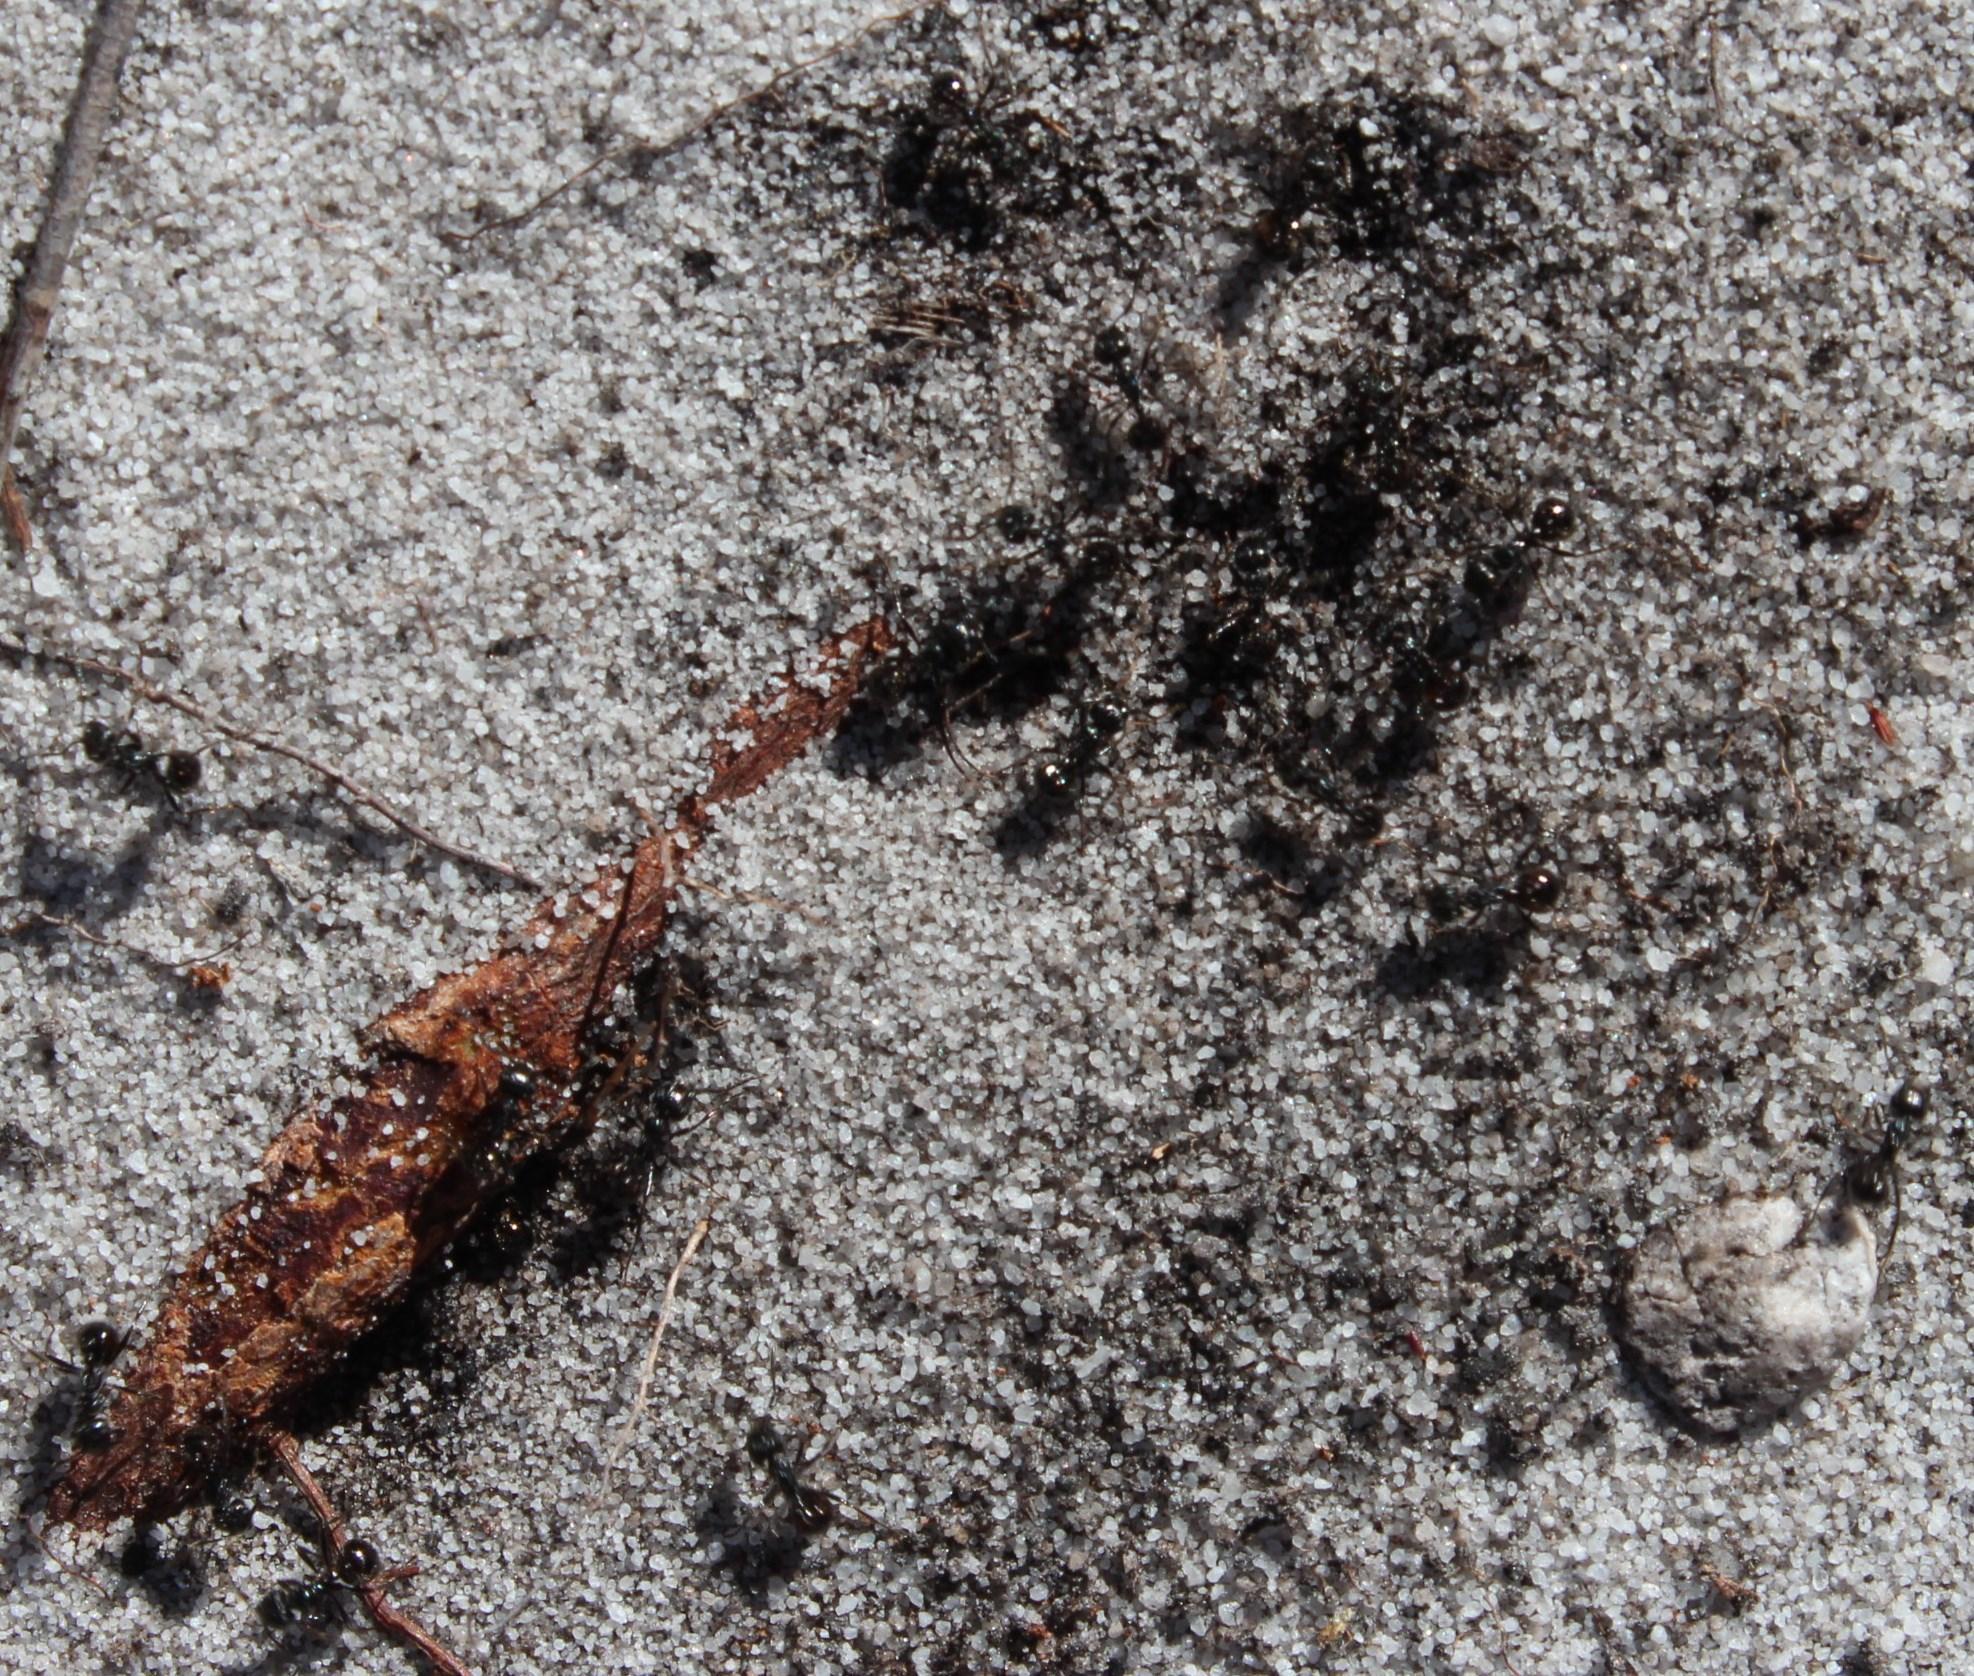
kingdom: Animalia
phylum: Arthropoda
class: Insecta
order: Hymenoptera
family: Formicidae
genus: Myrmicaria
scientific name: Myrmicaria nigra
